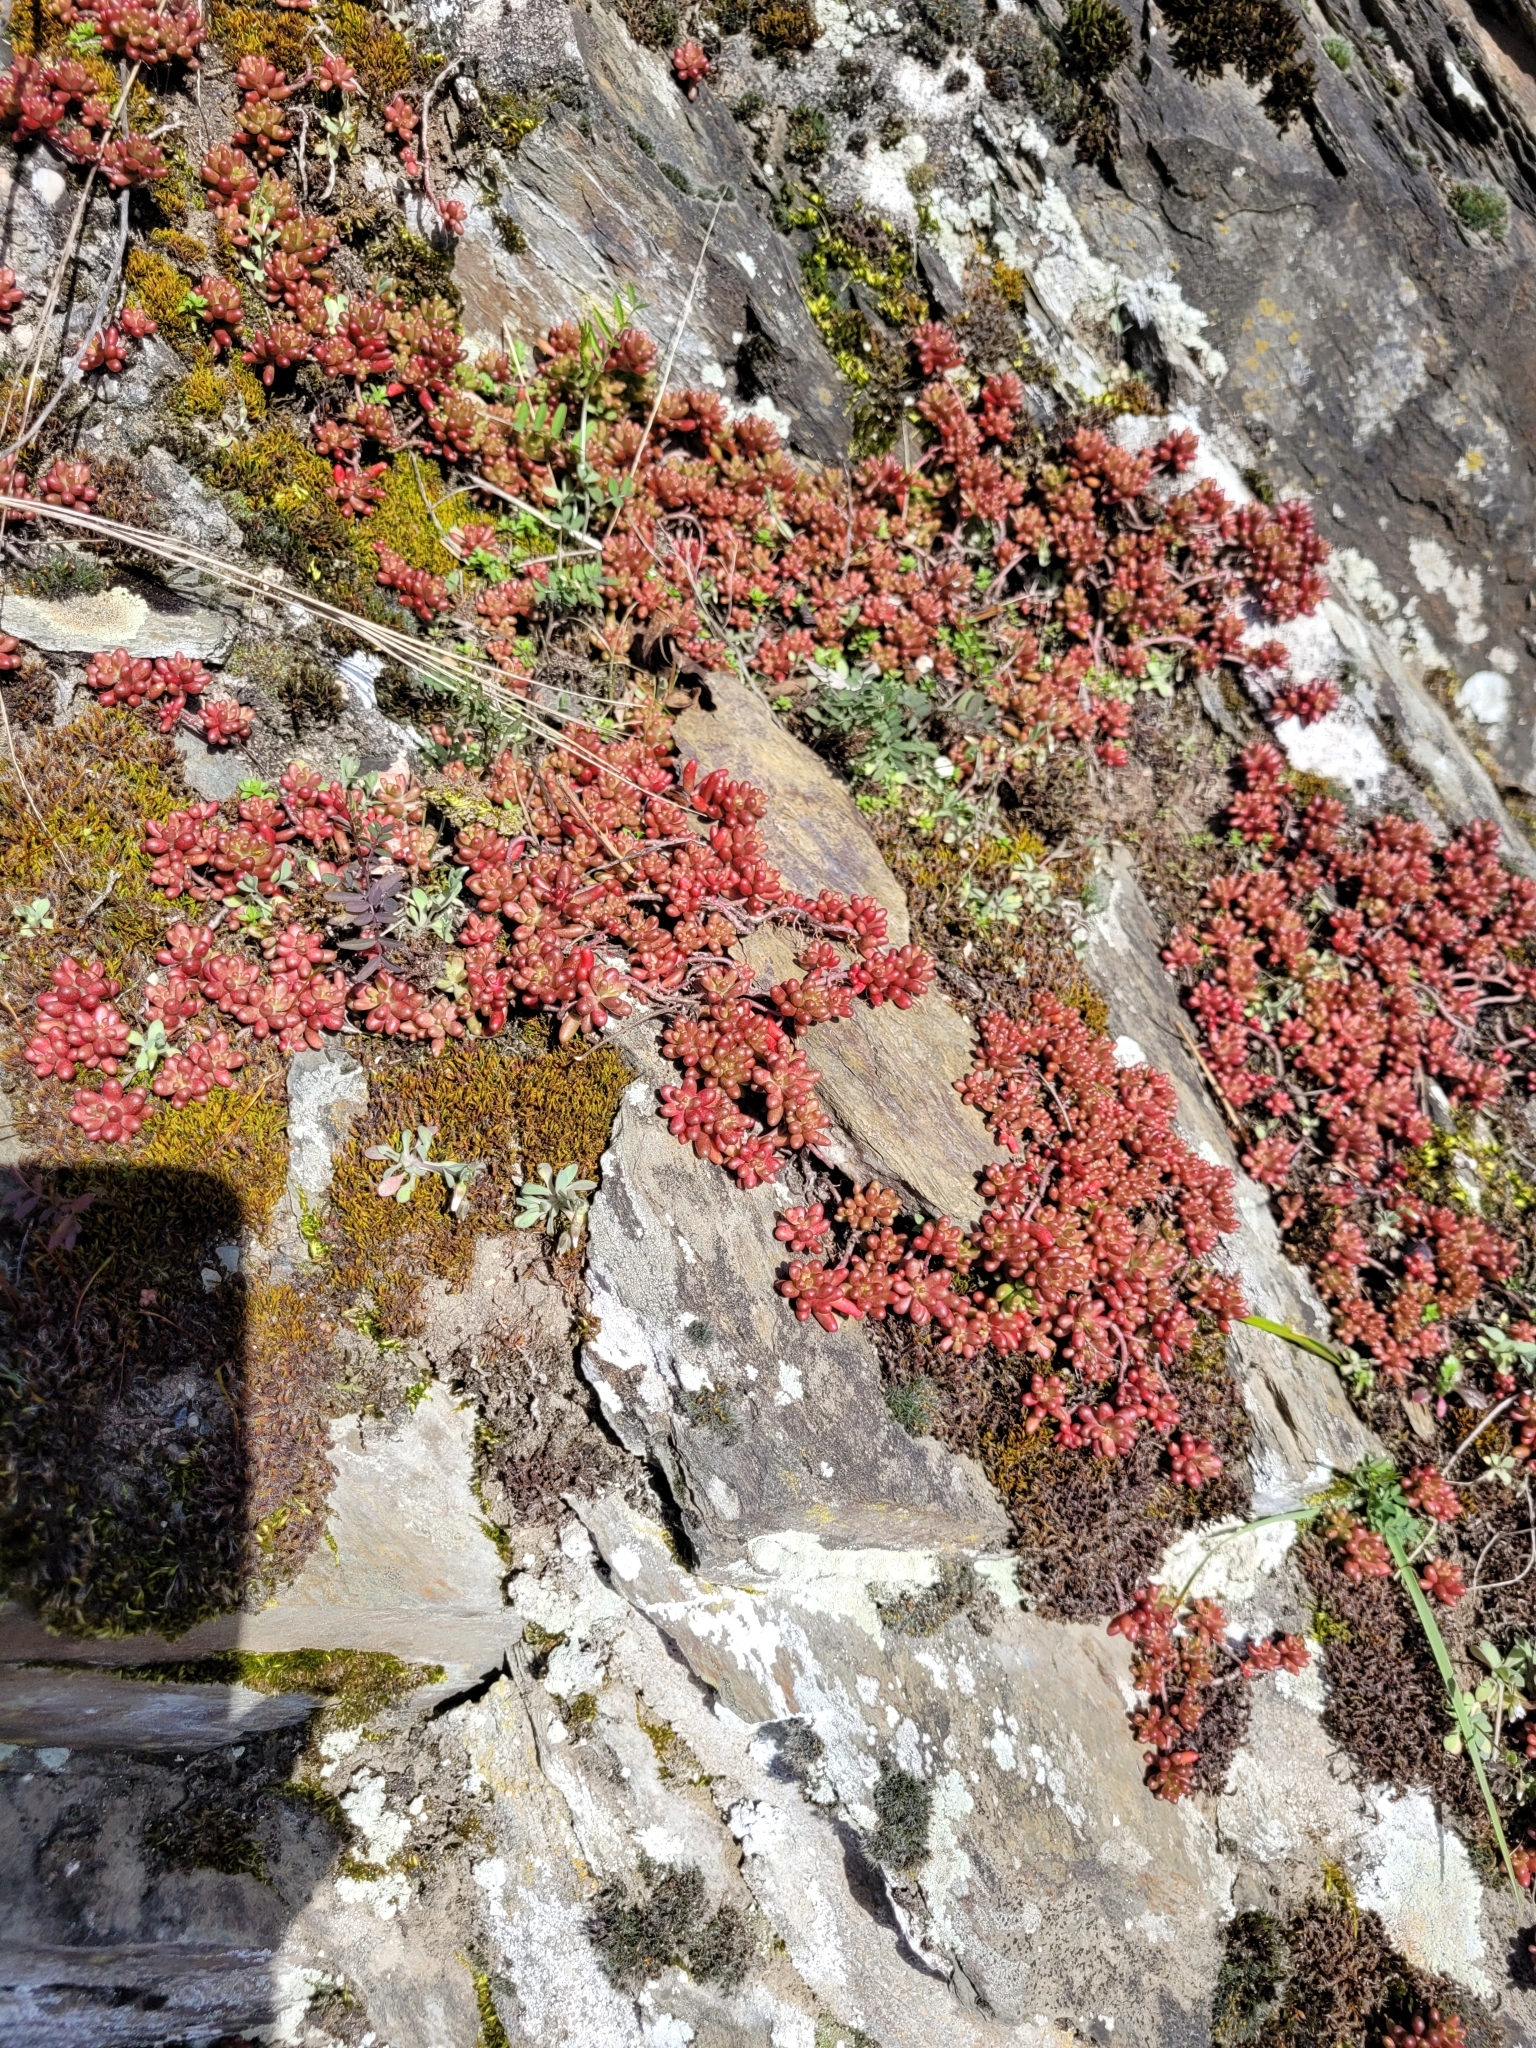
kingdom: Plantae
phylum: Tracheophyta
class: Magnoliopsida
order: Saxifragales
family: Crassulaceae
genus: Sedum
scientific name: Sedum album
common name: White stonecrop
